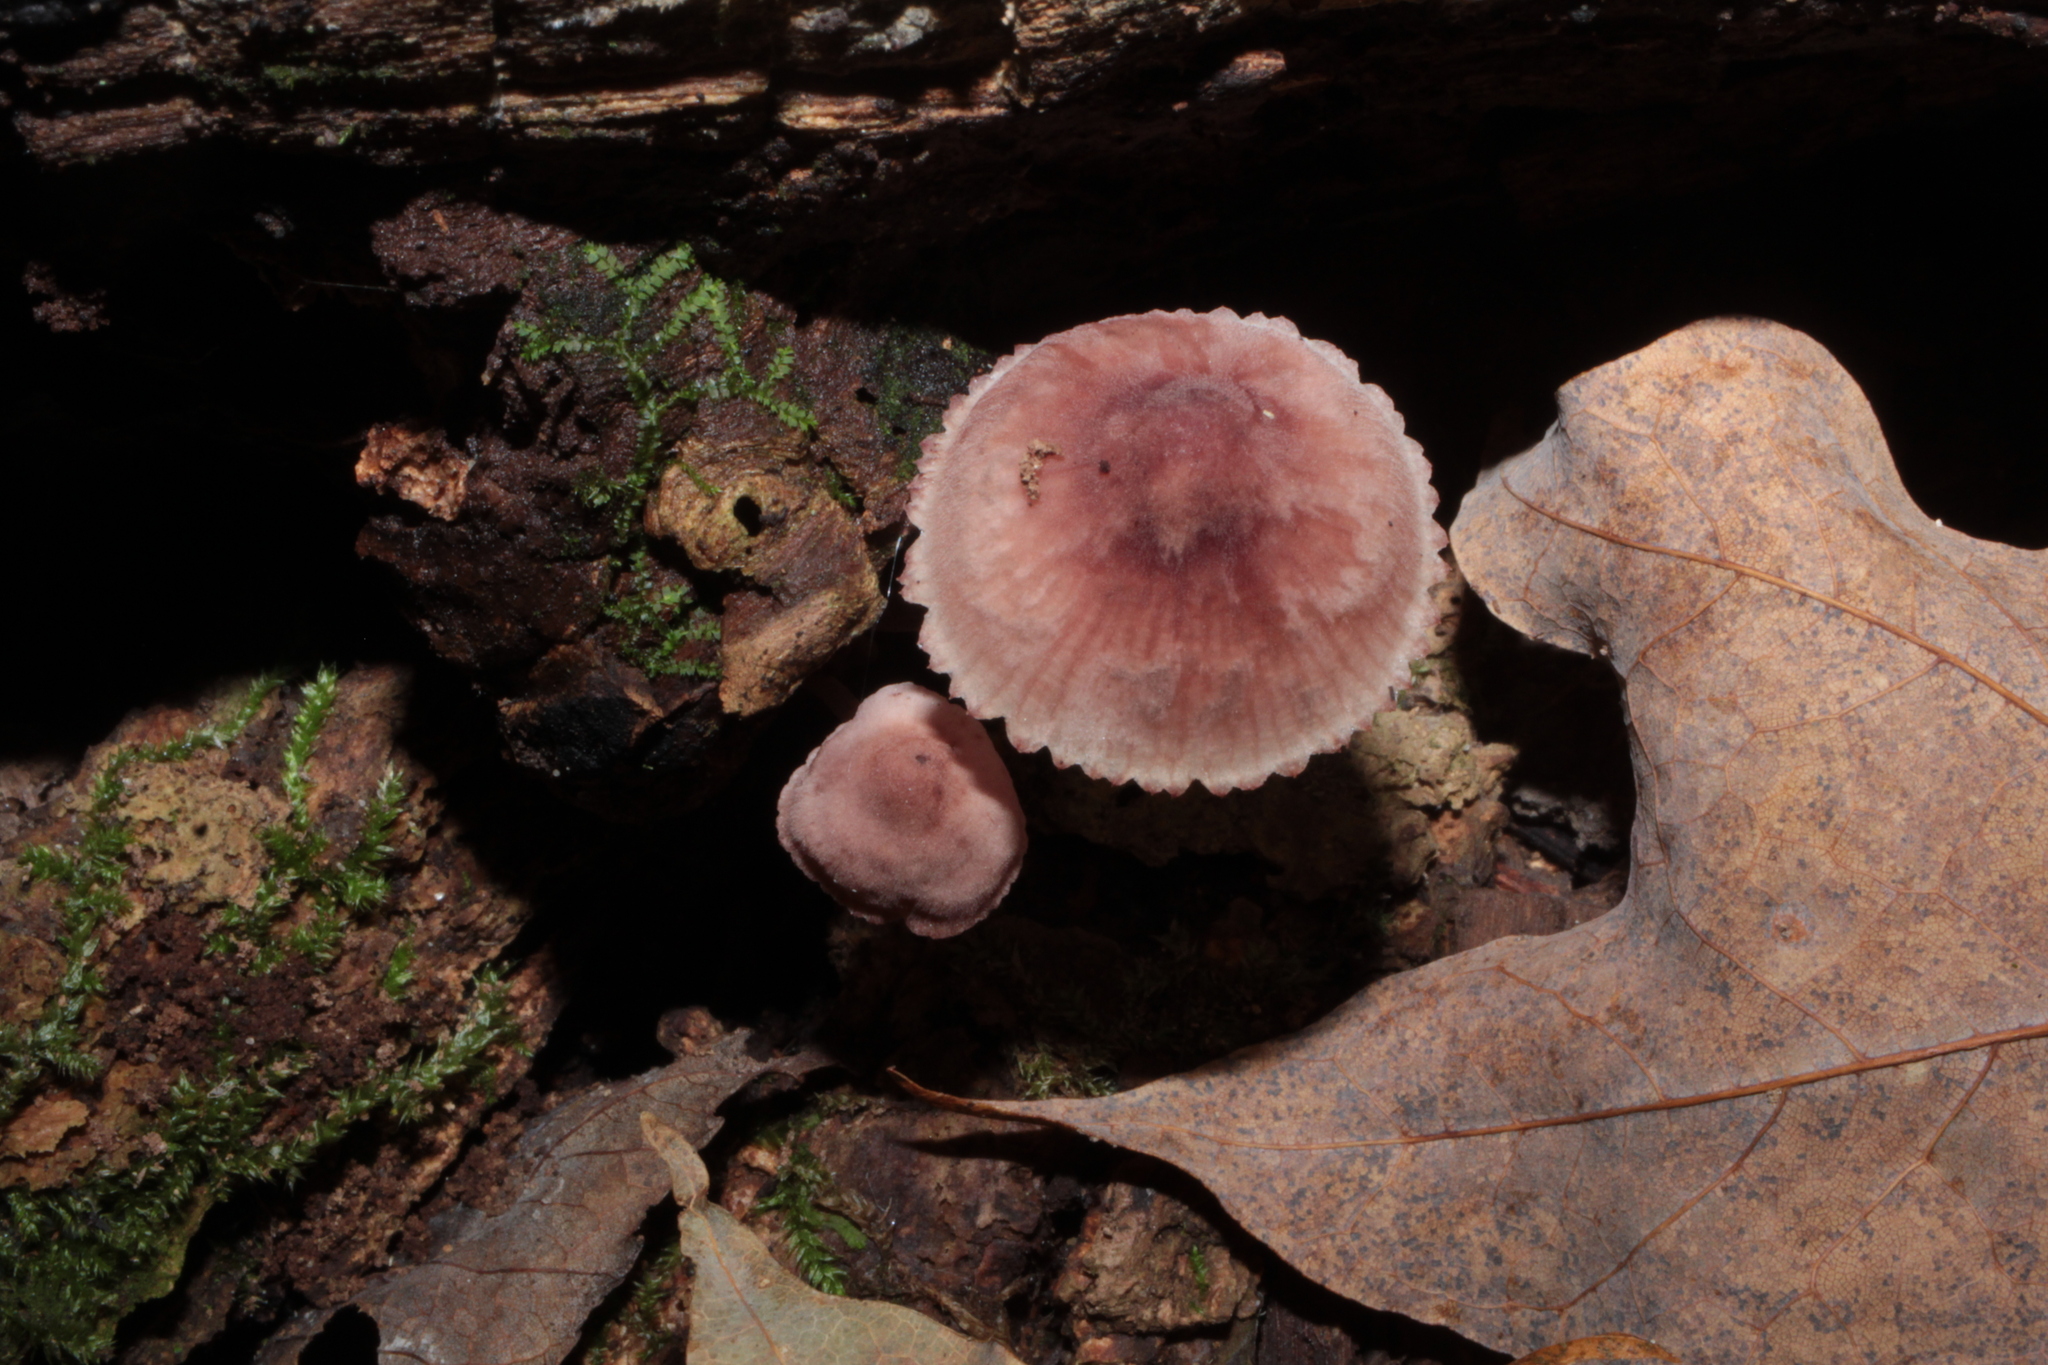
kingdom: Fungi
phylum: Basidiomycota
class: Agaricomycetes
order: Agaricales
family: Mycenaceae
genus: Mycena
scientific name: Mycena haematopus
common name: Burgundydrop bonnet
